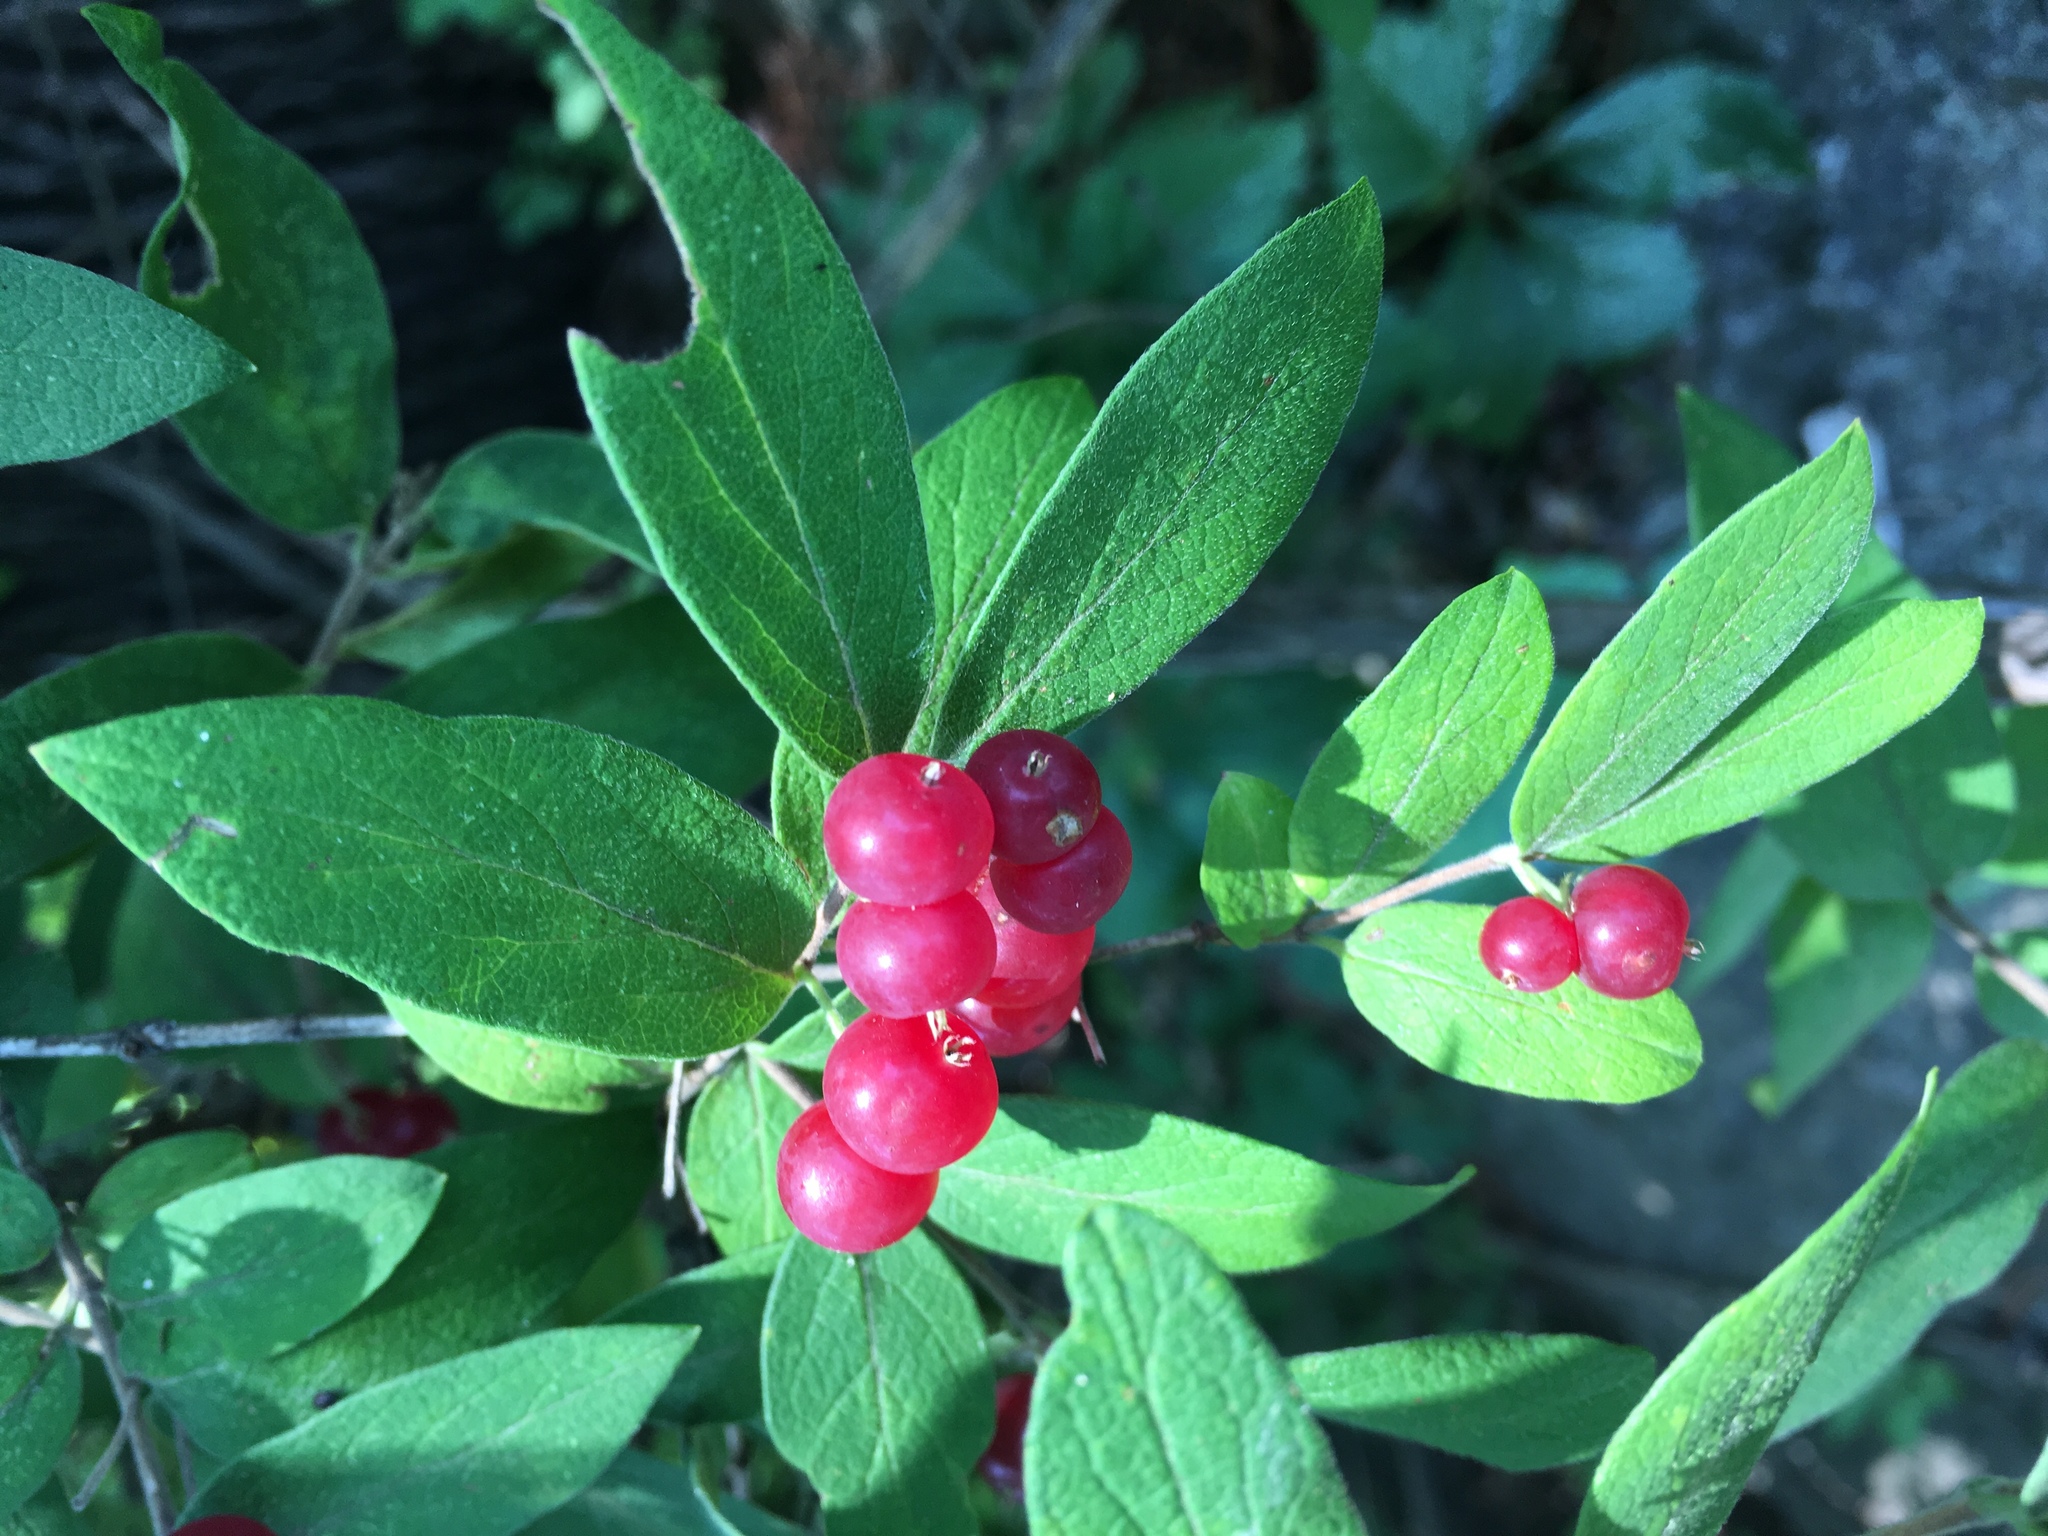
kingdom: Plantae
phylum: Tracheophyta
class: Magnoliopsida
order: Dipsacales
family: Caprifoliaceae
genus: Lonicera
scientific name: Lonicera morrowii
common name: Morrow's honeysuckle
